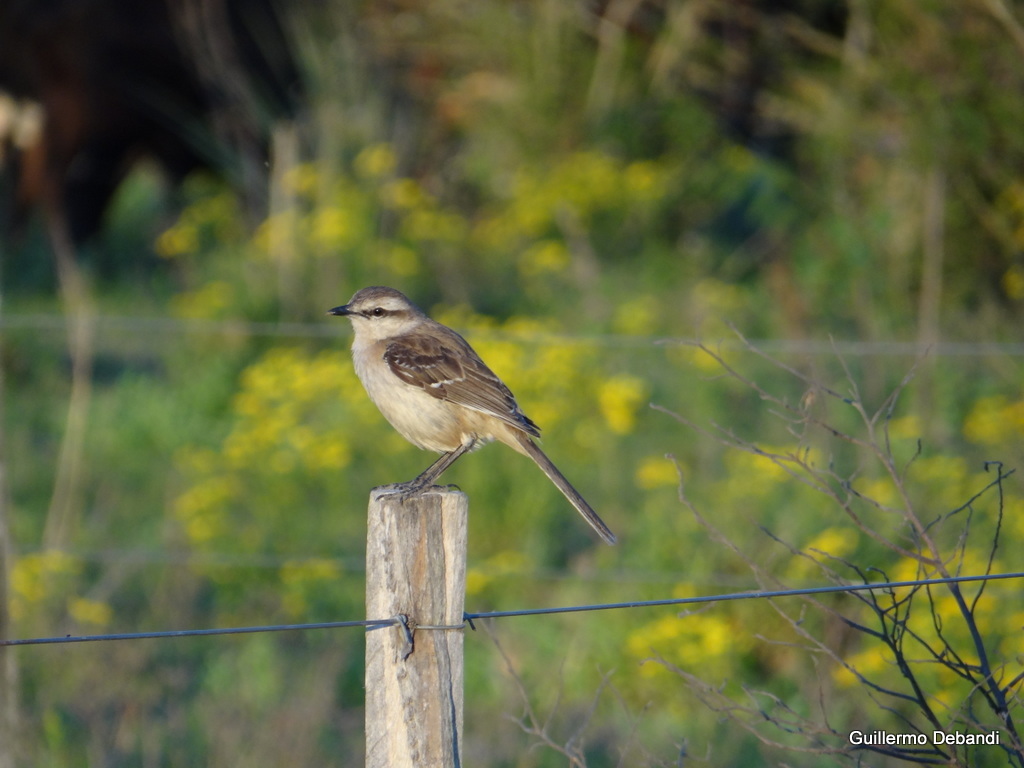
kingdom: Animalia
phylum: Chordata
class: Aves
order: Passeriformes
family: Mimidae
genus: Mimus
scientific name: Mimus saturninus
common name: Chalk-browed mockingbird
